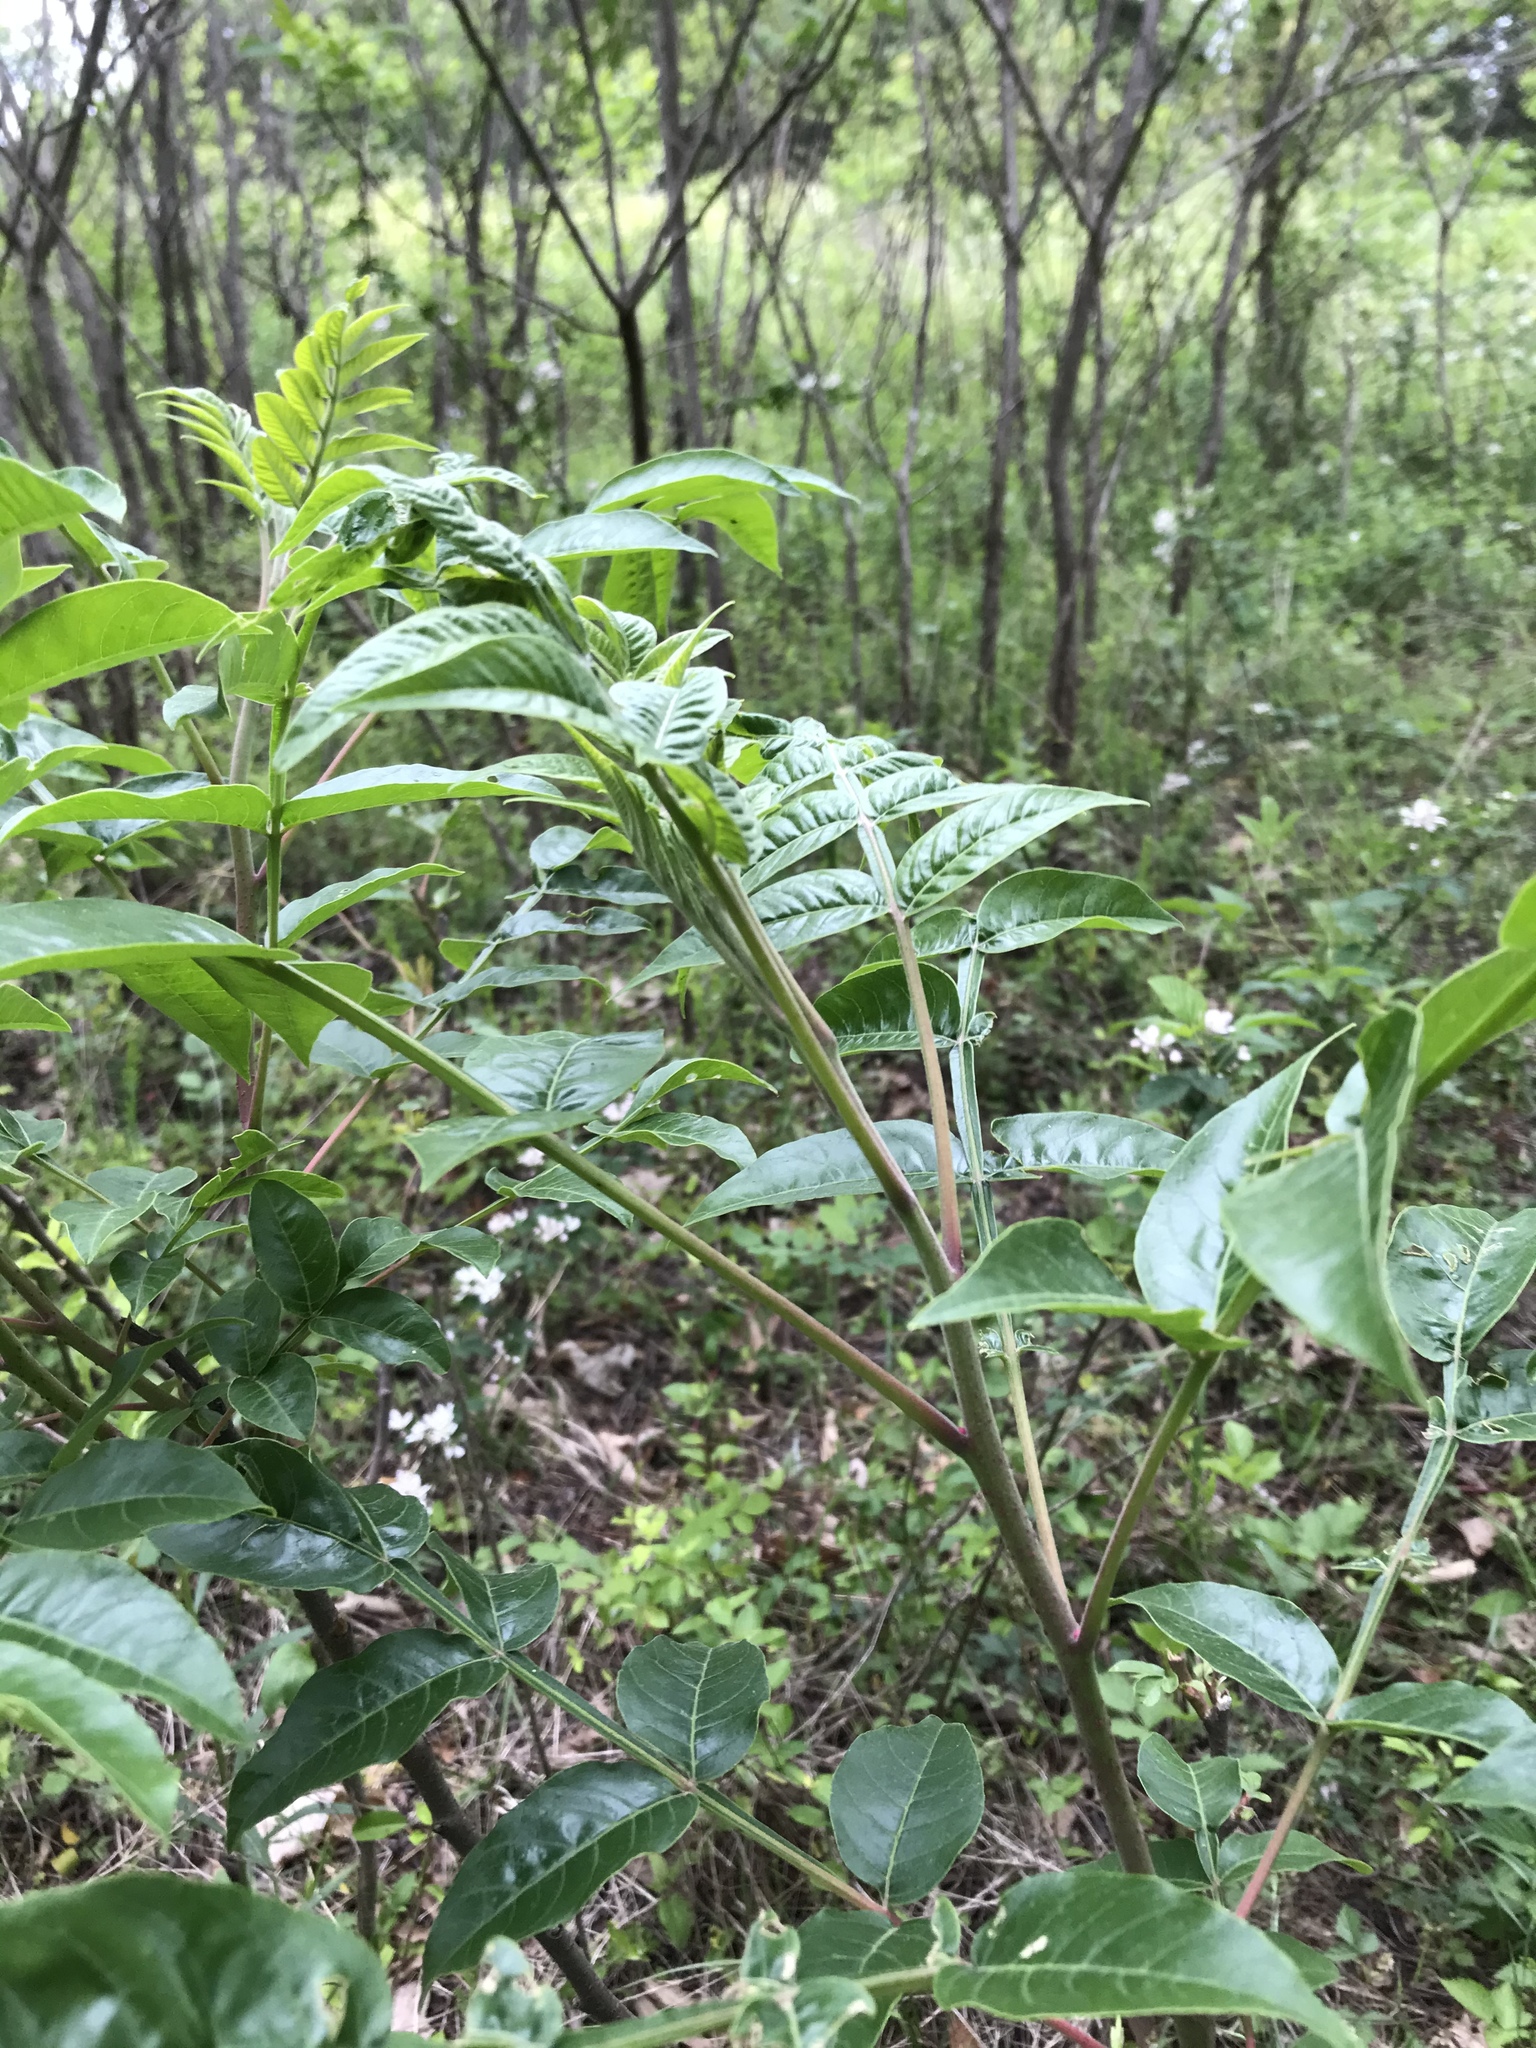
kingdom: Plantae
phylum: Tracheophyta
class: Magnoliopsida
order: Sapindales
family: Anacardiaceae
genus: Rhus
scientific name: Rhus copallina
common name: Shining sumac
